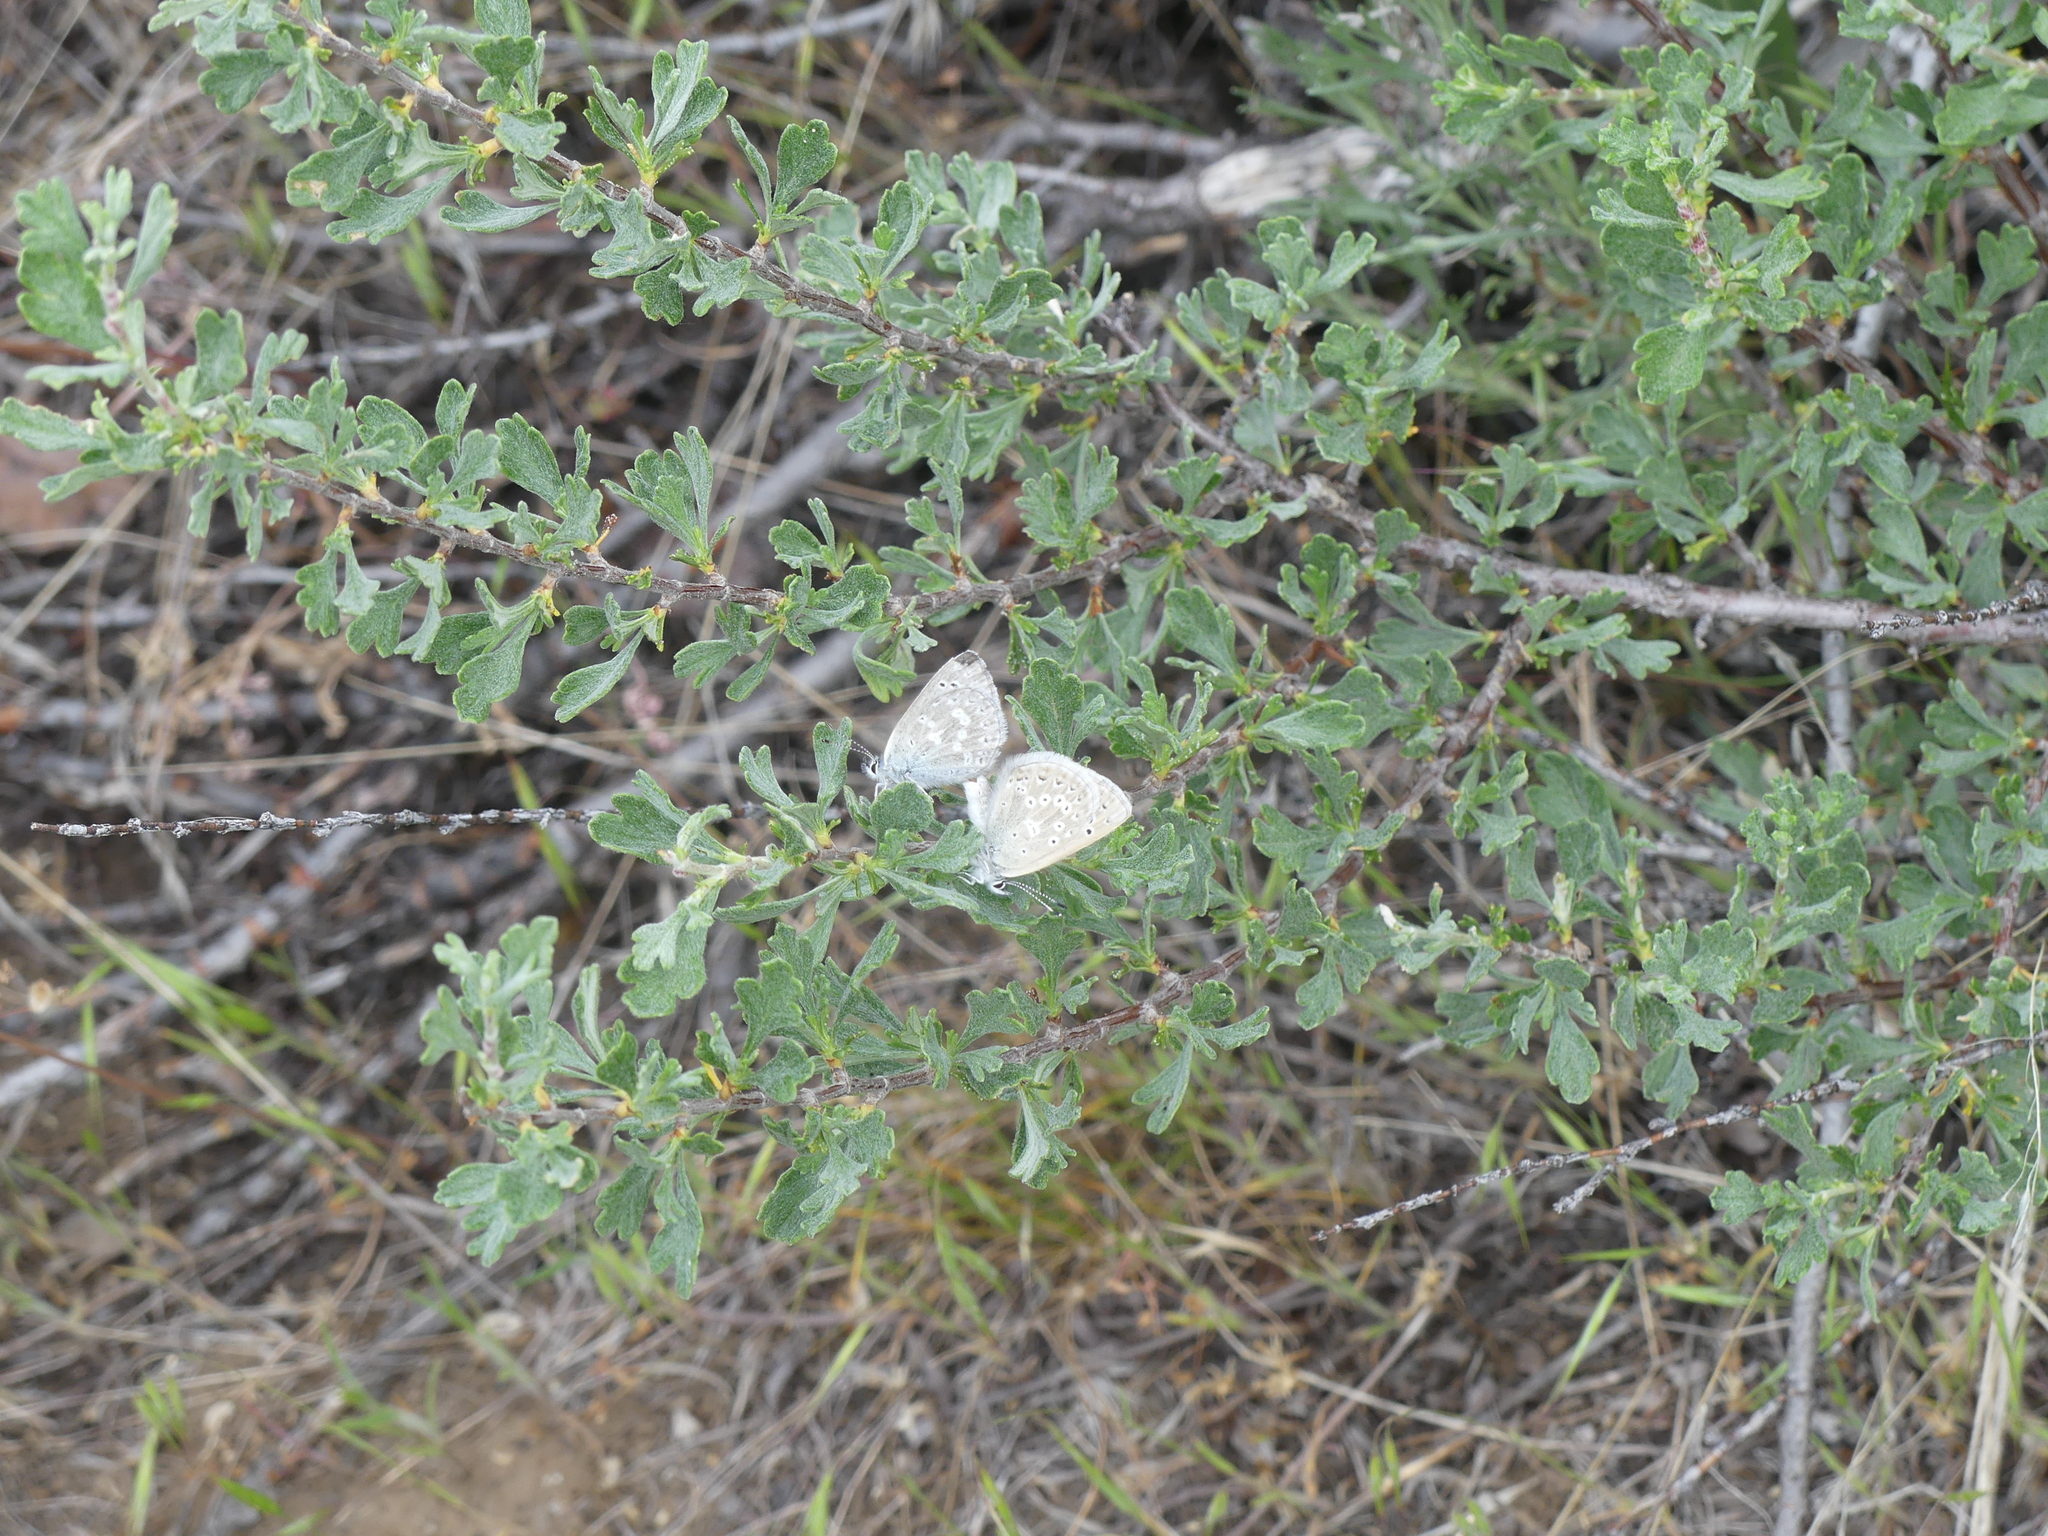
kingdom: Animalia
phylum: Arthropoda
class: Insecta
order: Lepidoptera
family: Lycaenidae
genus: Icaricia
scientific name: Icaricia icarioides
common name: Boisduval's blue
